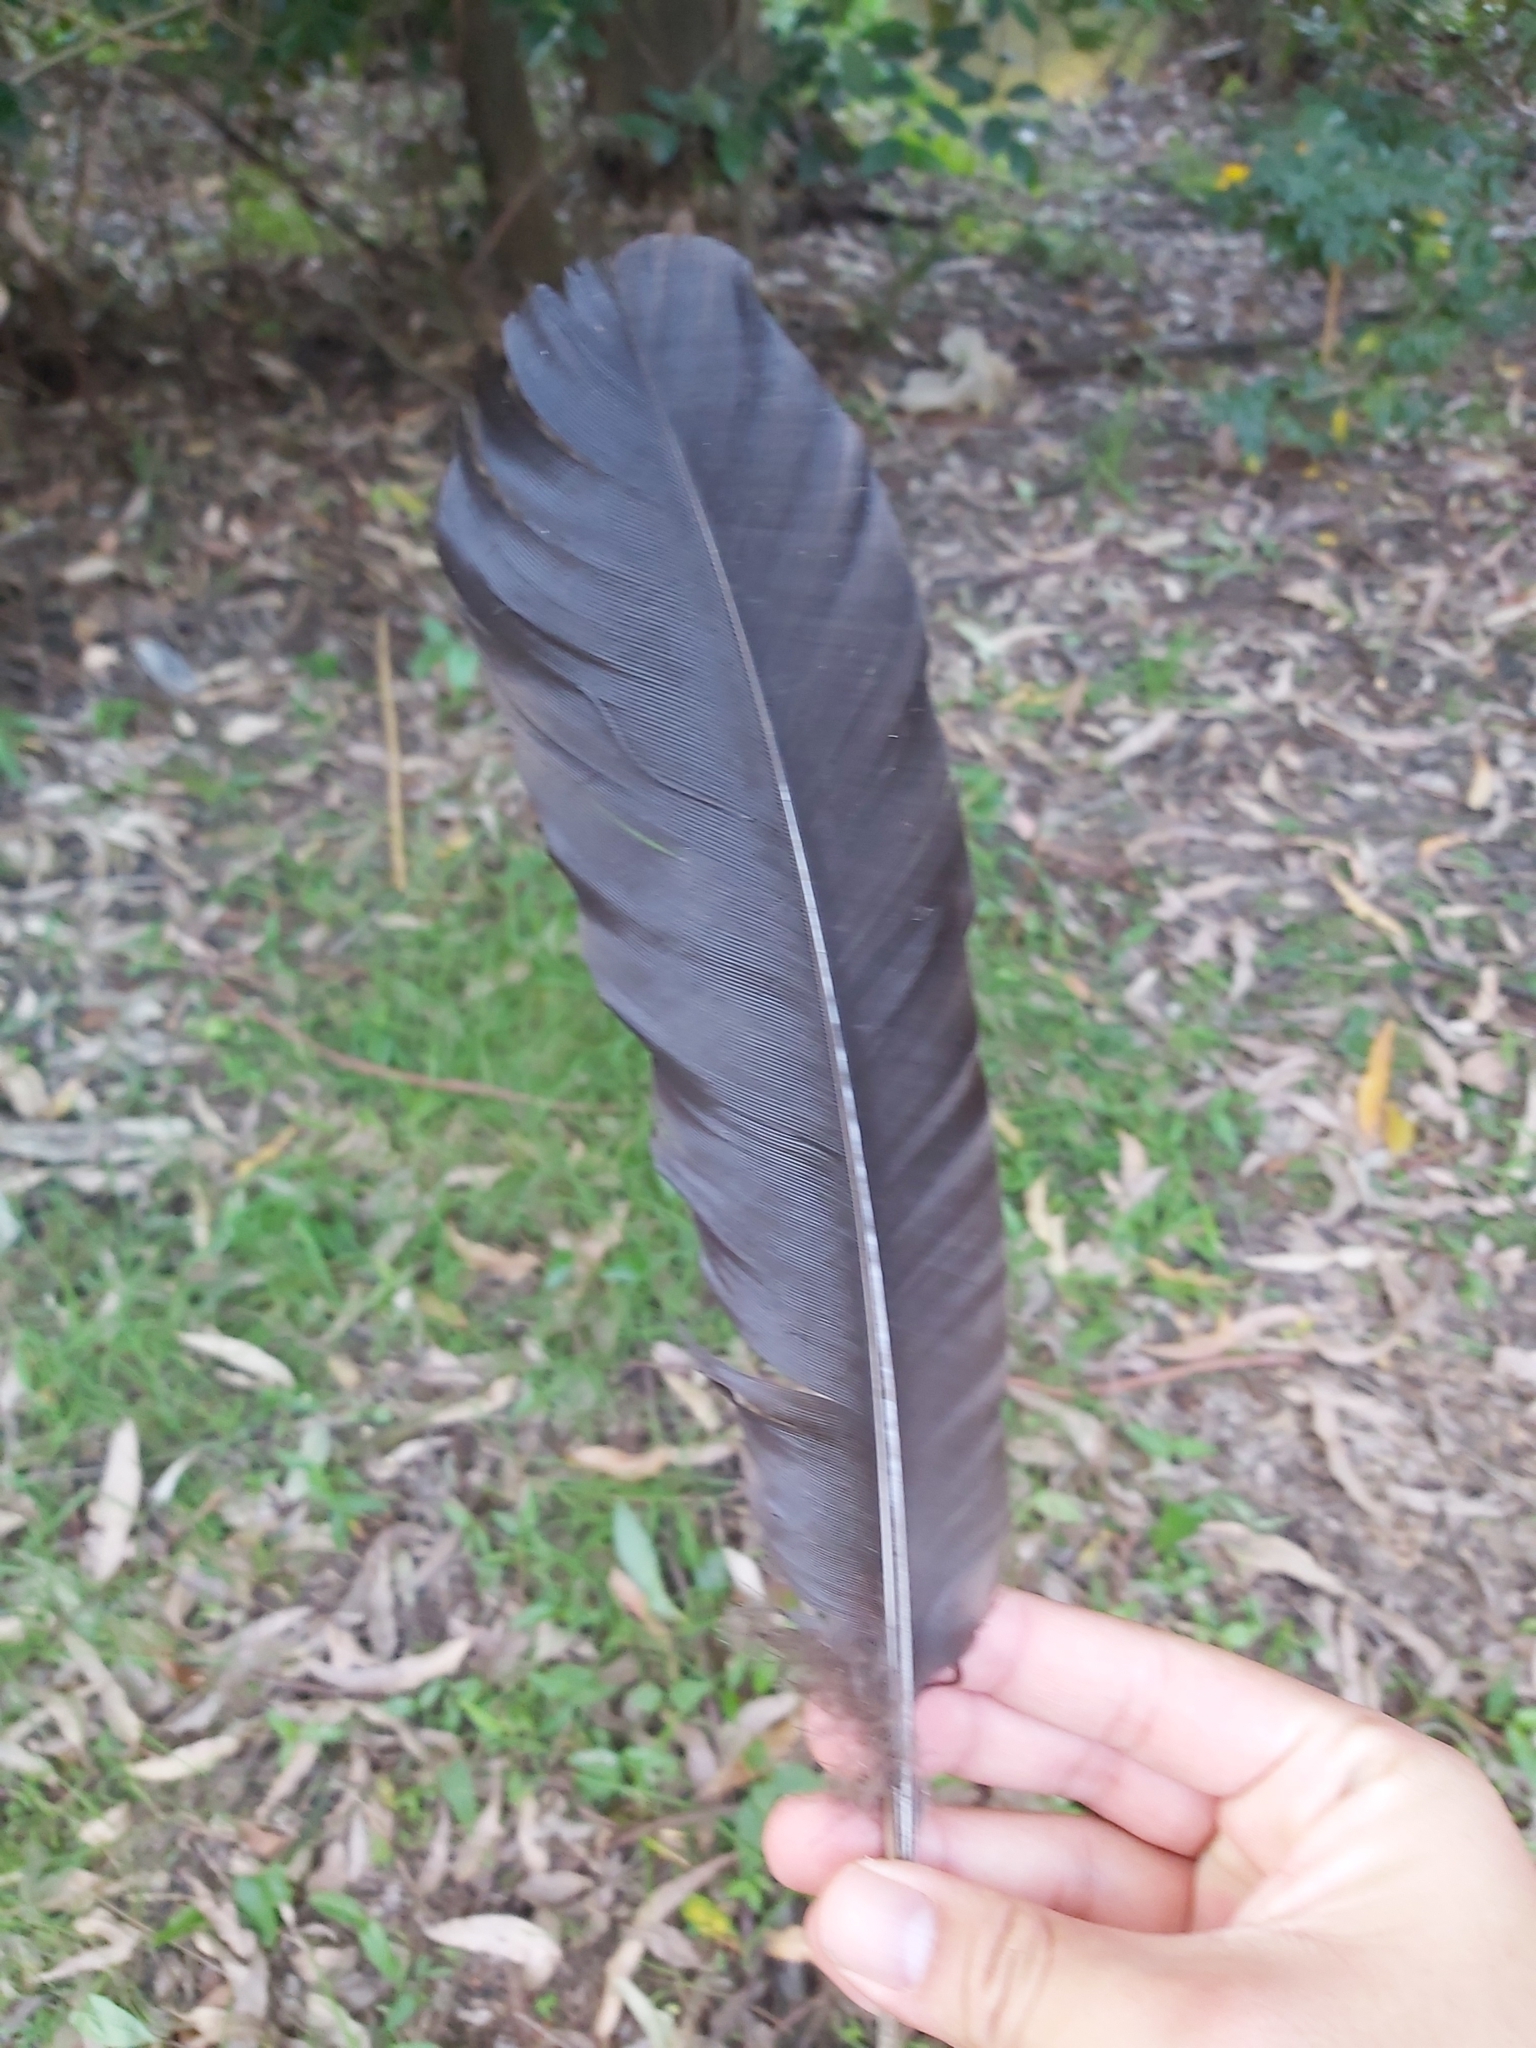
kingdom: Animalia
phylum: Chordata
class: Aves
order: Galliformes
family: Megapodiidae
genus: Alectura
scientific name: Alectura lathami
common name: Australian brushturkey
